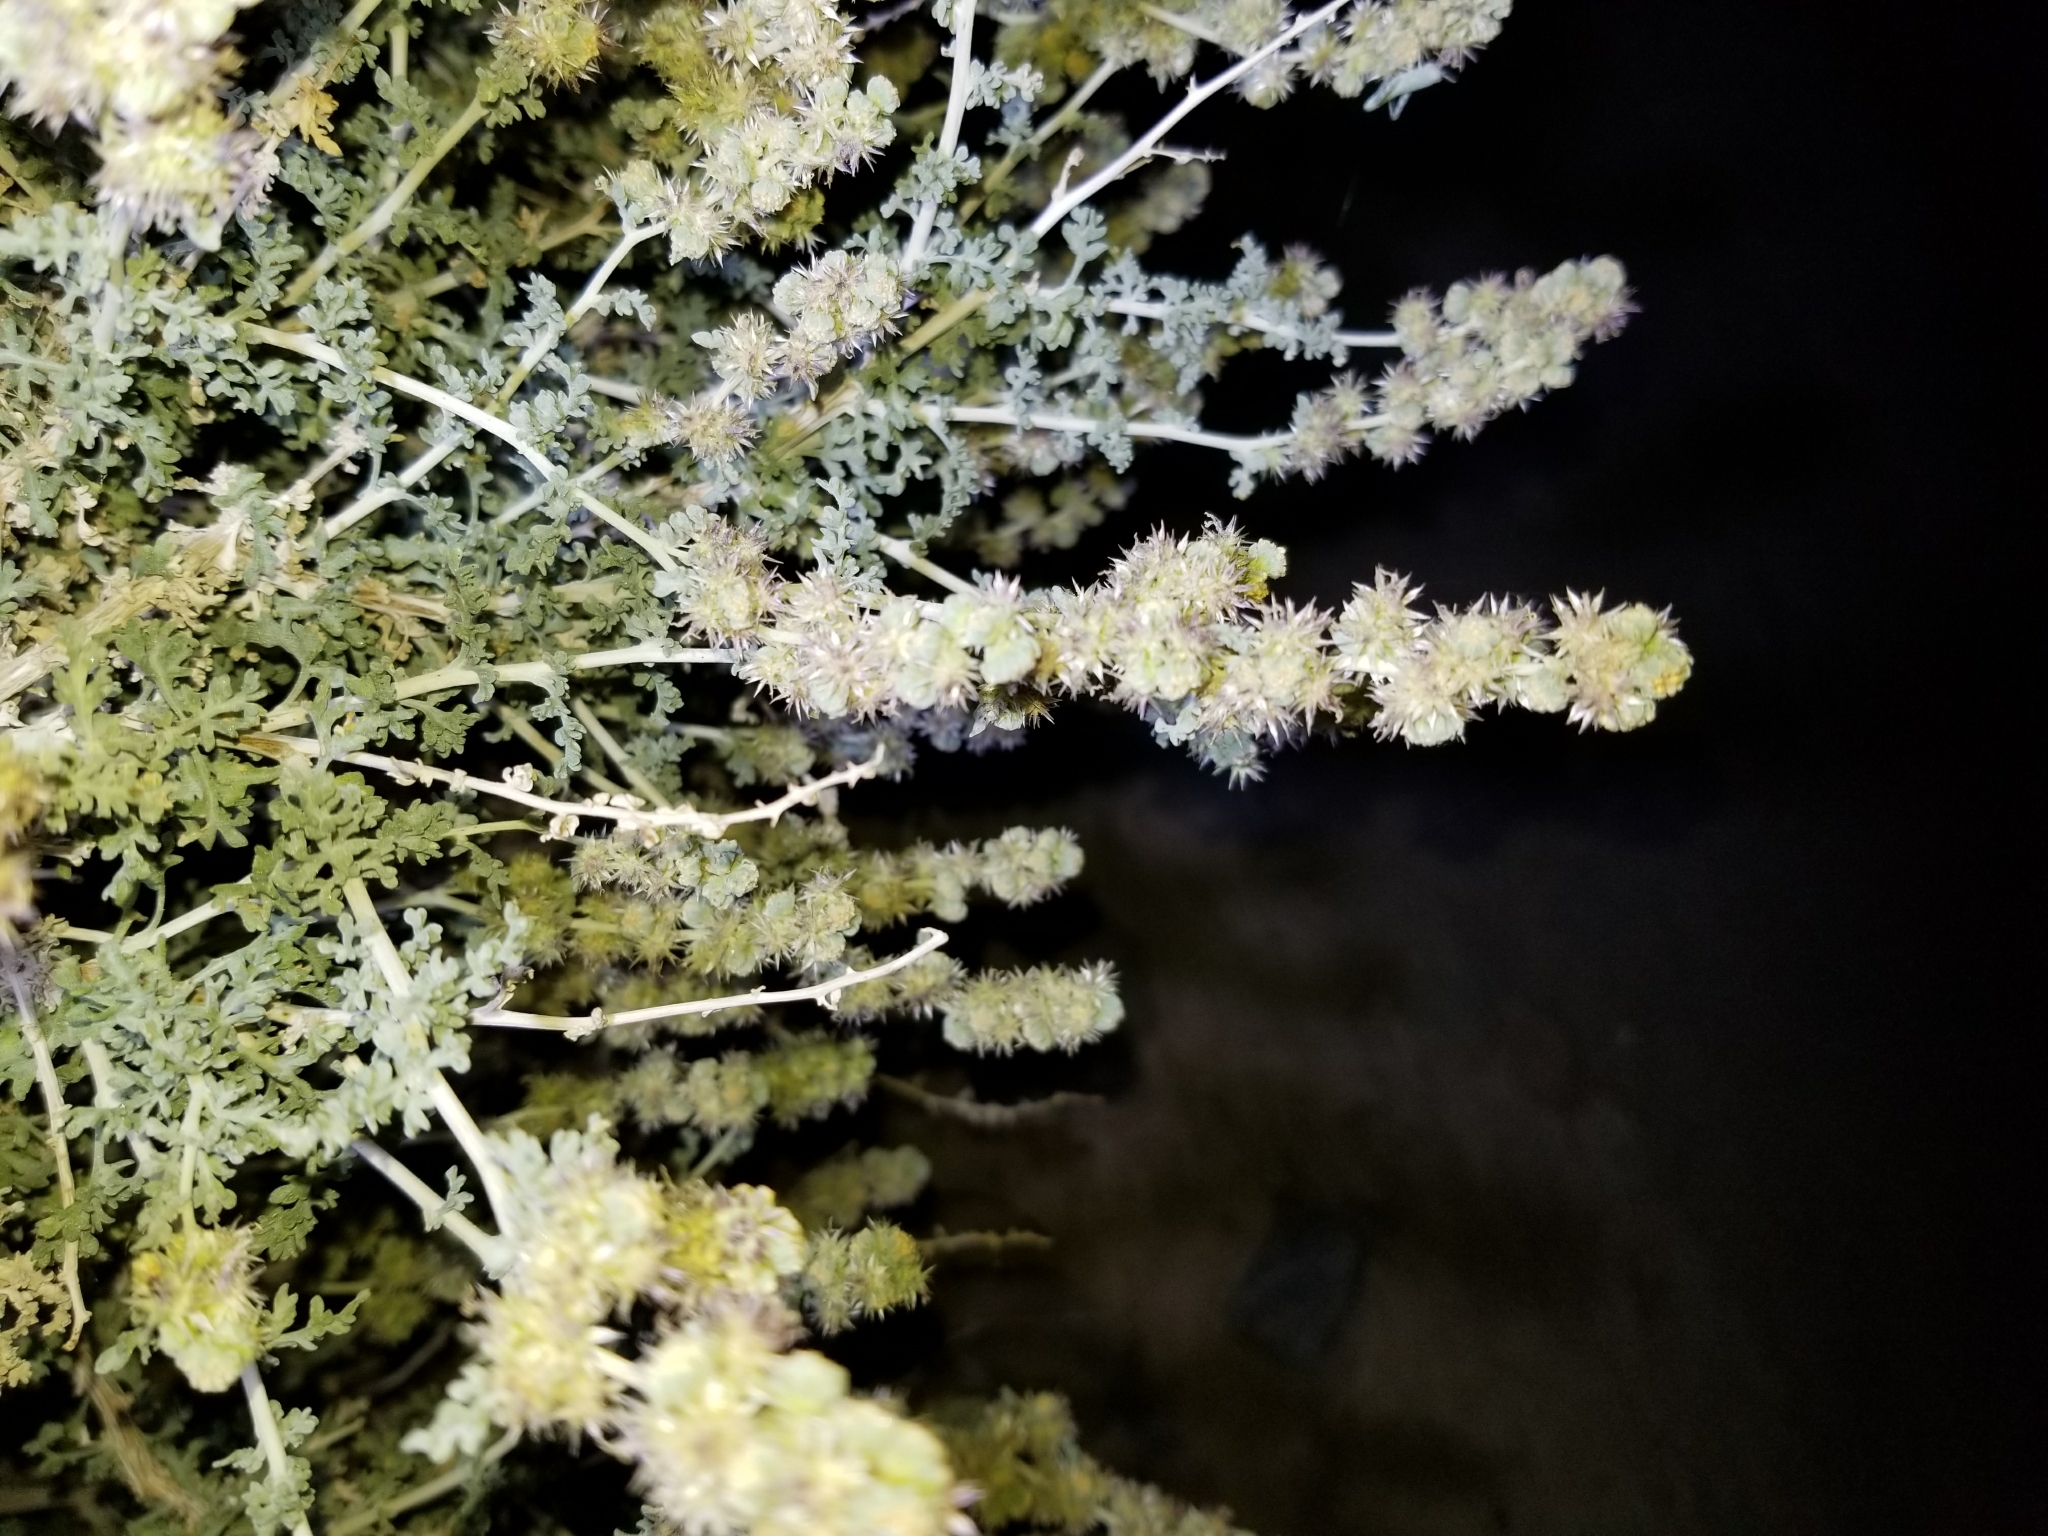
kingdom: Plantae
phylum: Tracheophyta
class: Magnoliopsida
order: Asterales
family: Asteraceae
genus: Ambrosia
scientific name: Ambrosia dumosa
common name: Bur-sage
